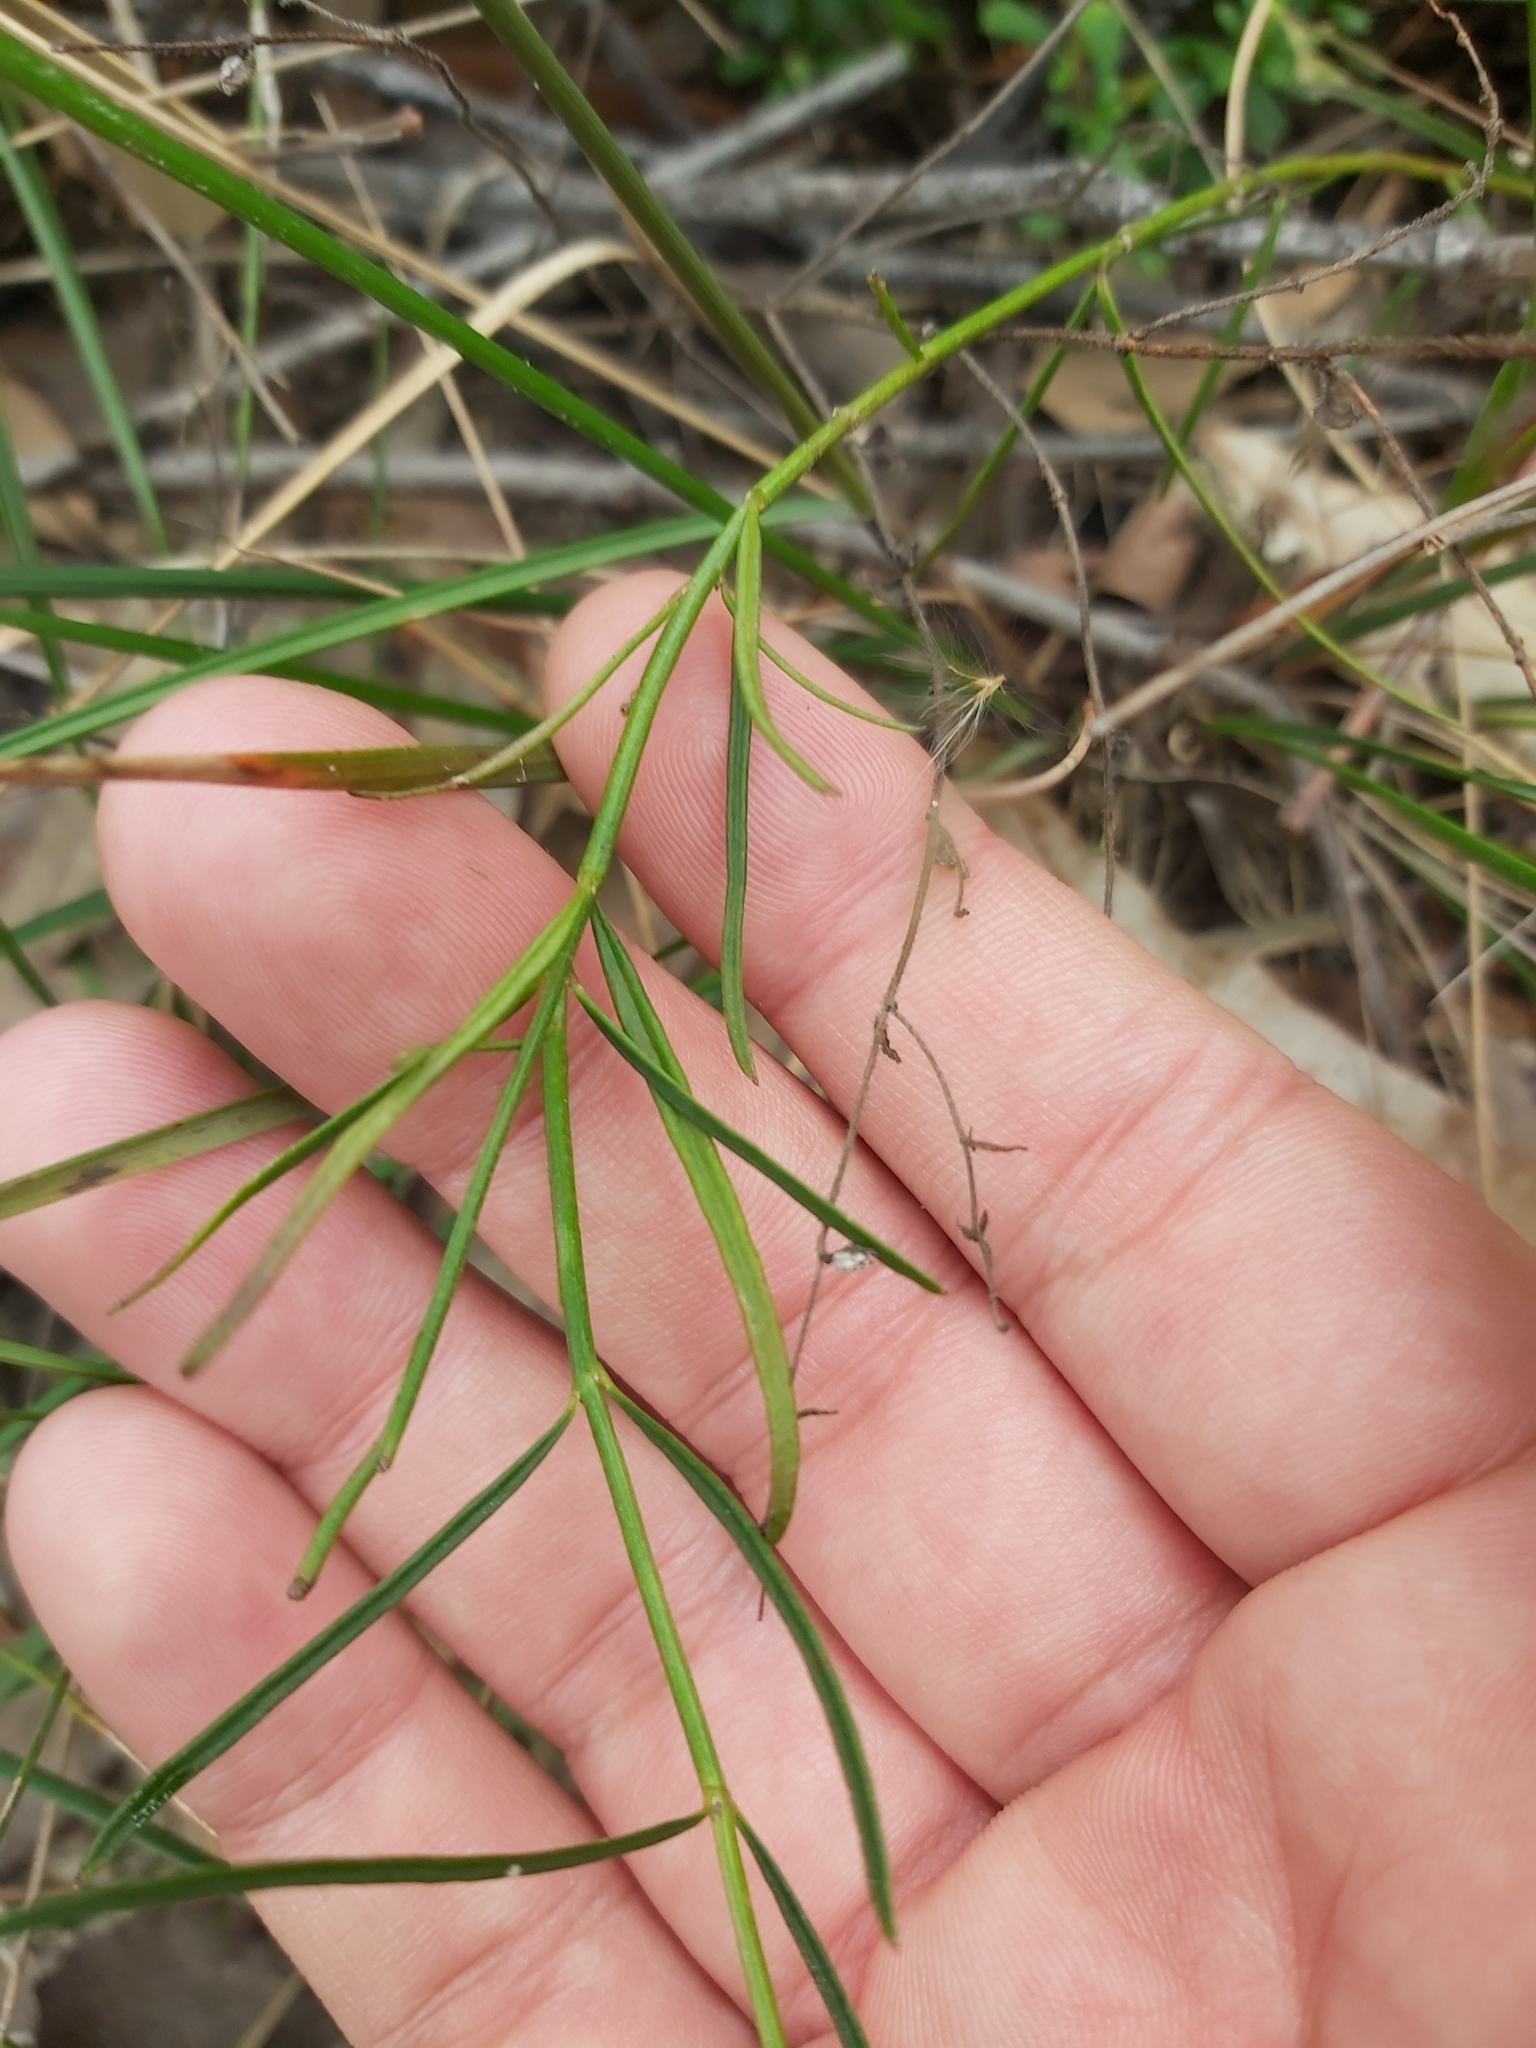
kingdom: Plantae
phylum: Tracheophyta
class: Magnoliopsida
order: Malpighiales
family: Violaceae
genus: Pigea
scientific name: Pigea monopetala
